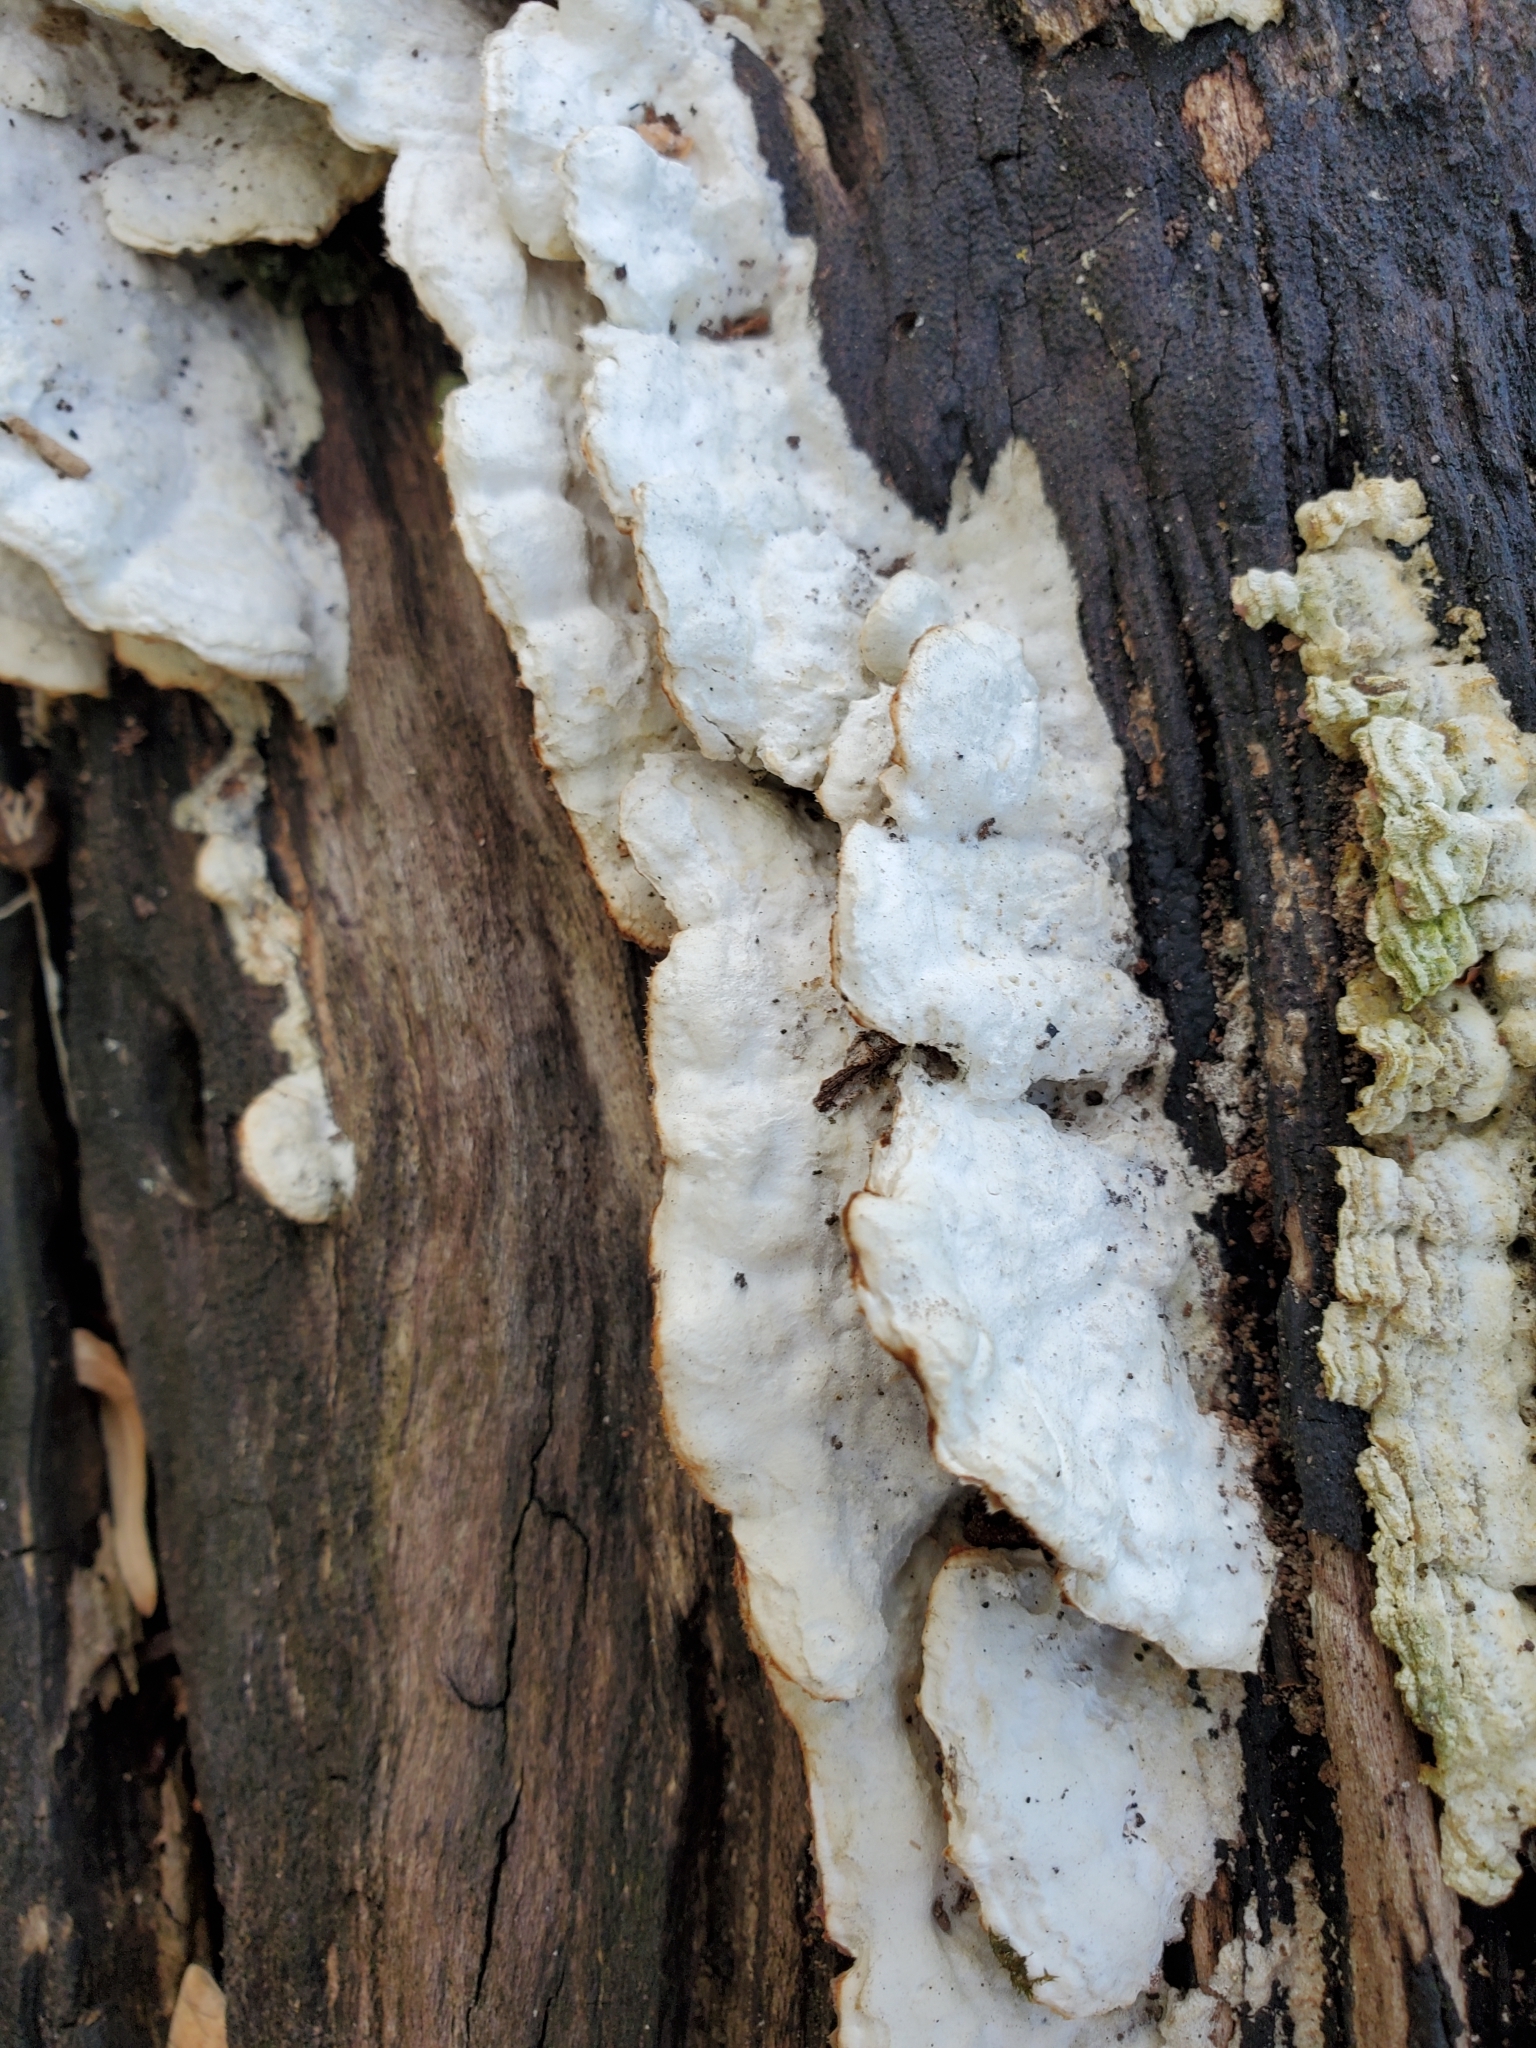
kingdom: Fungi
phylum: Basidiomycota
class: Agaricomycetes
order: Polyporales
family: Irpicaceae
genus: Vitreoporus
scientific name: Vitreoporus dichrous
